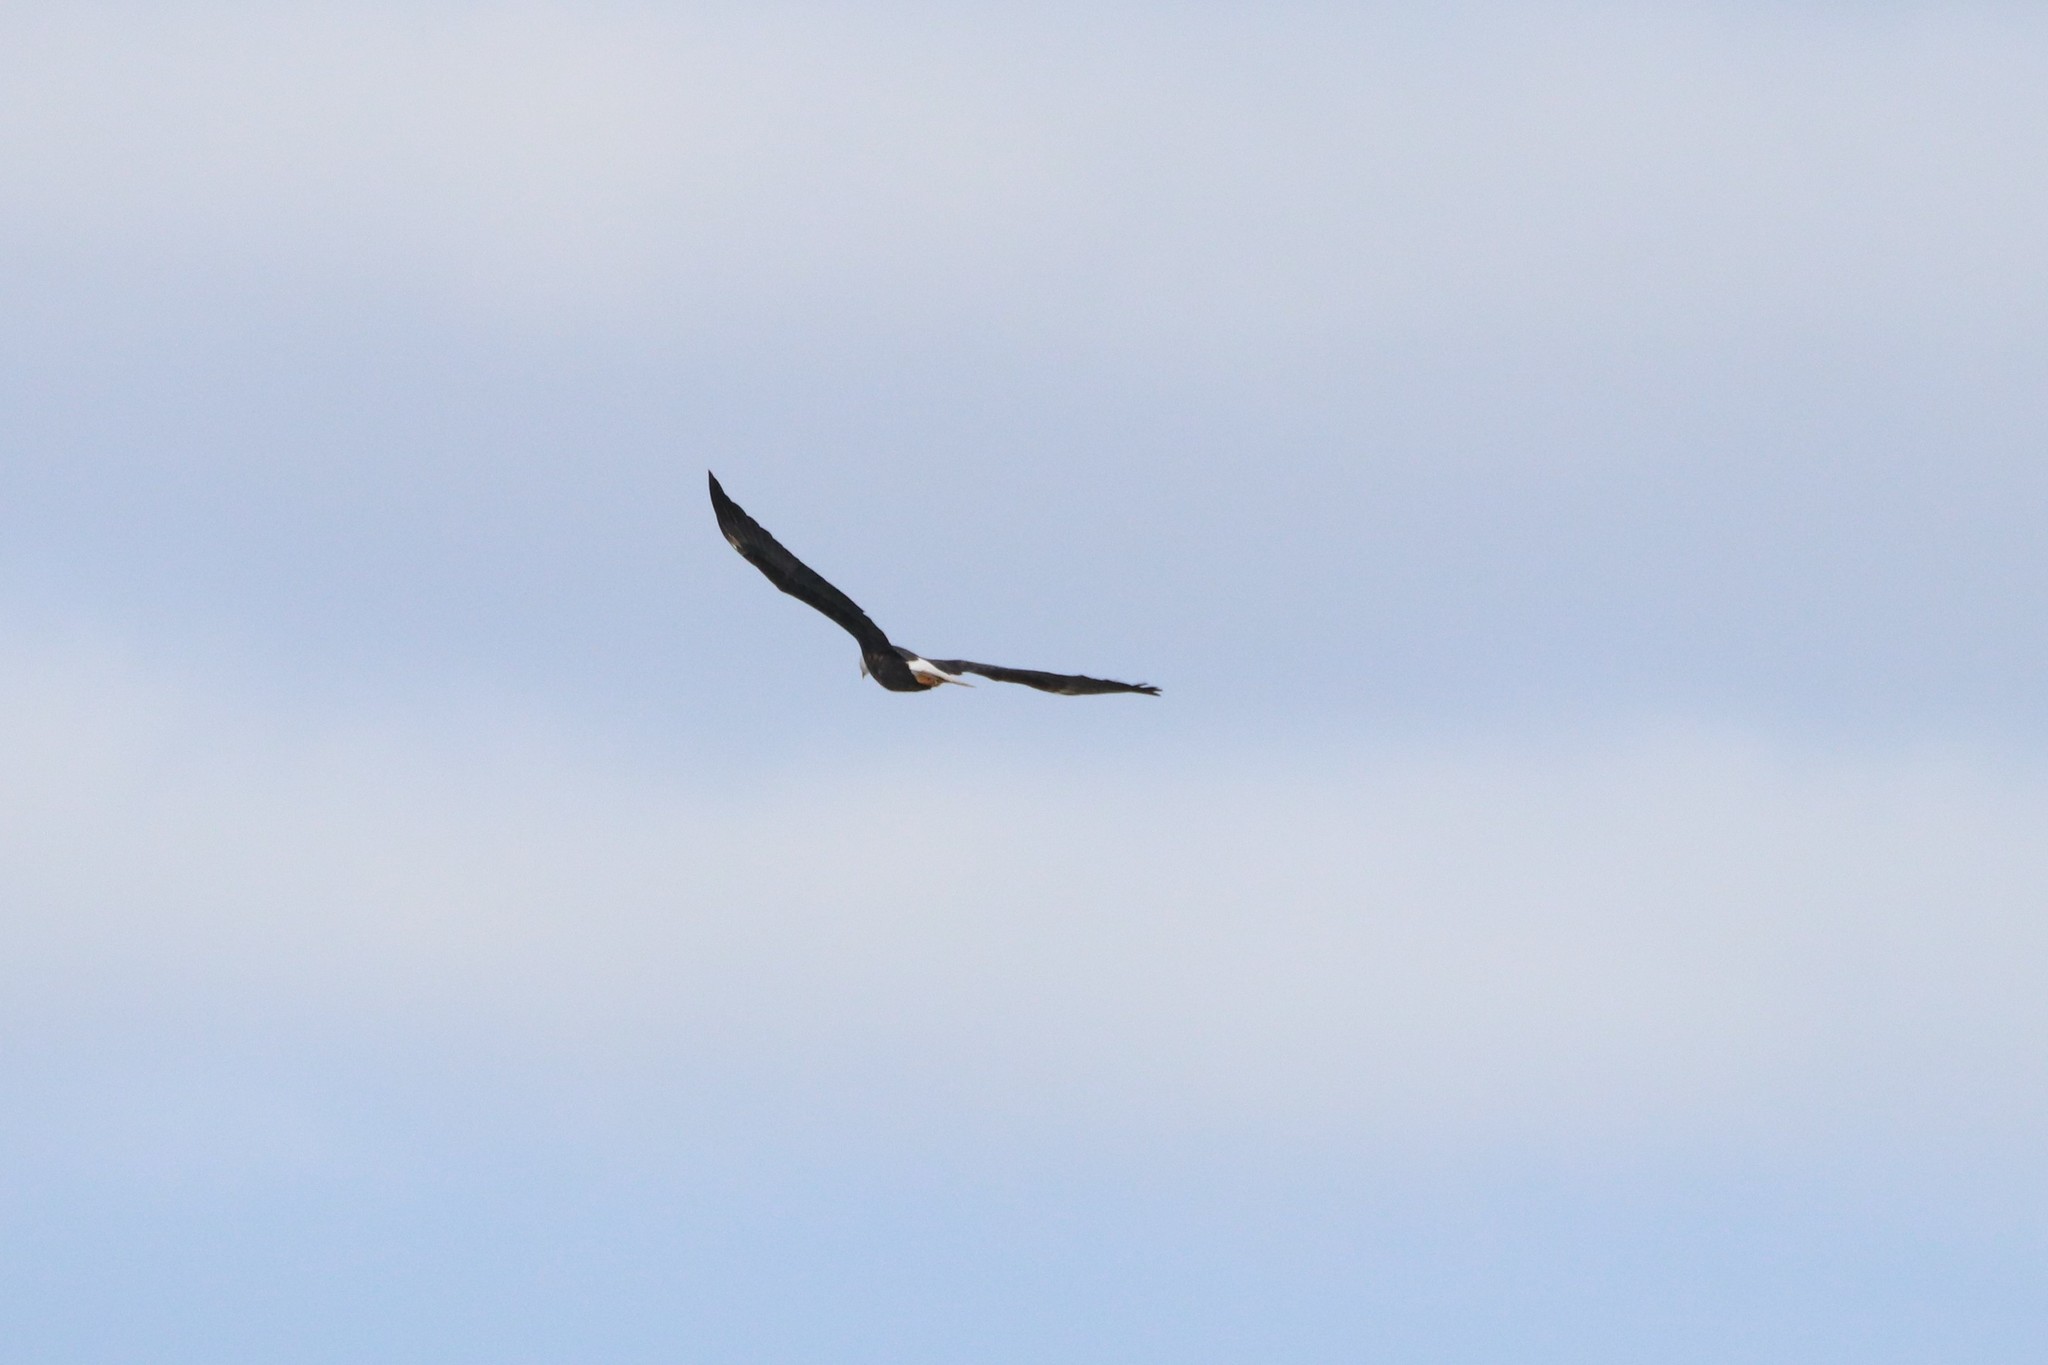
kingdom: Animalia
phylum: Chordata
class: Aves
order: Accipitriformes
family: Accipitridae
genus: Haliaeetus
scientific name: Haliaeetus leucocephalus
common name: Bald eagle
